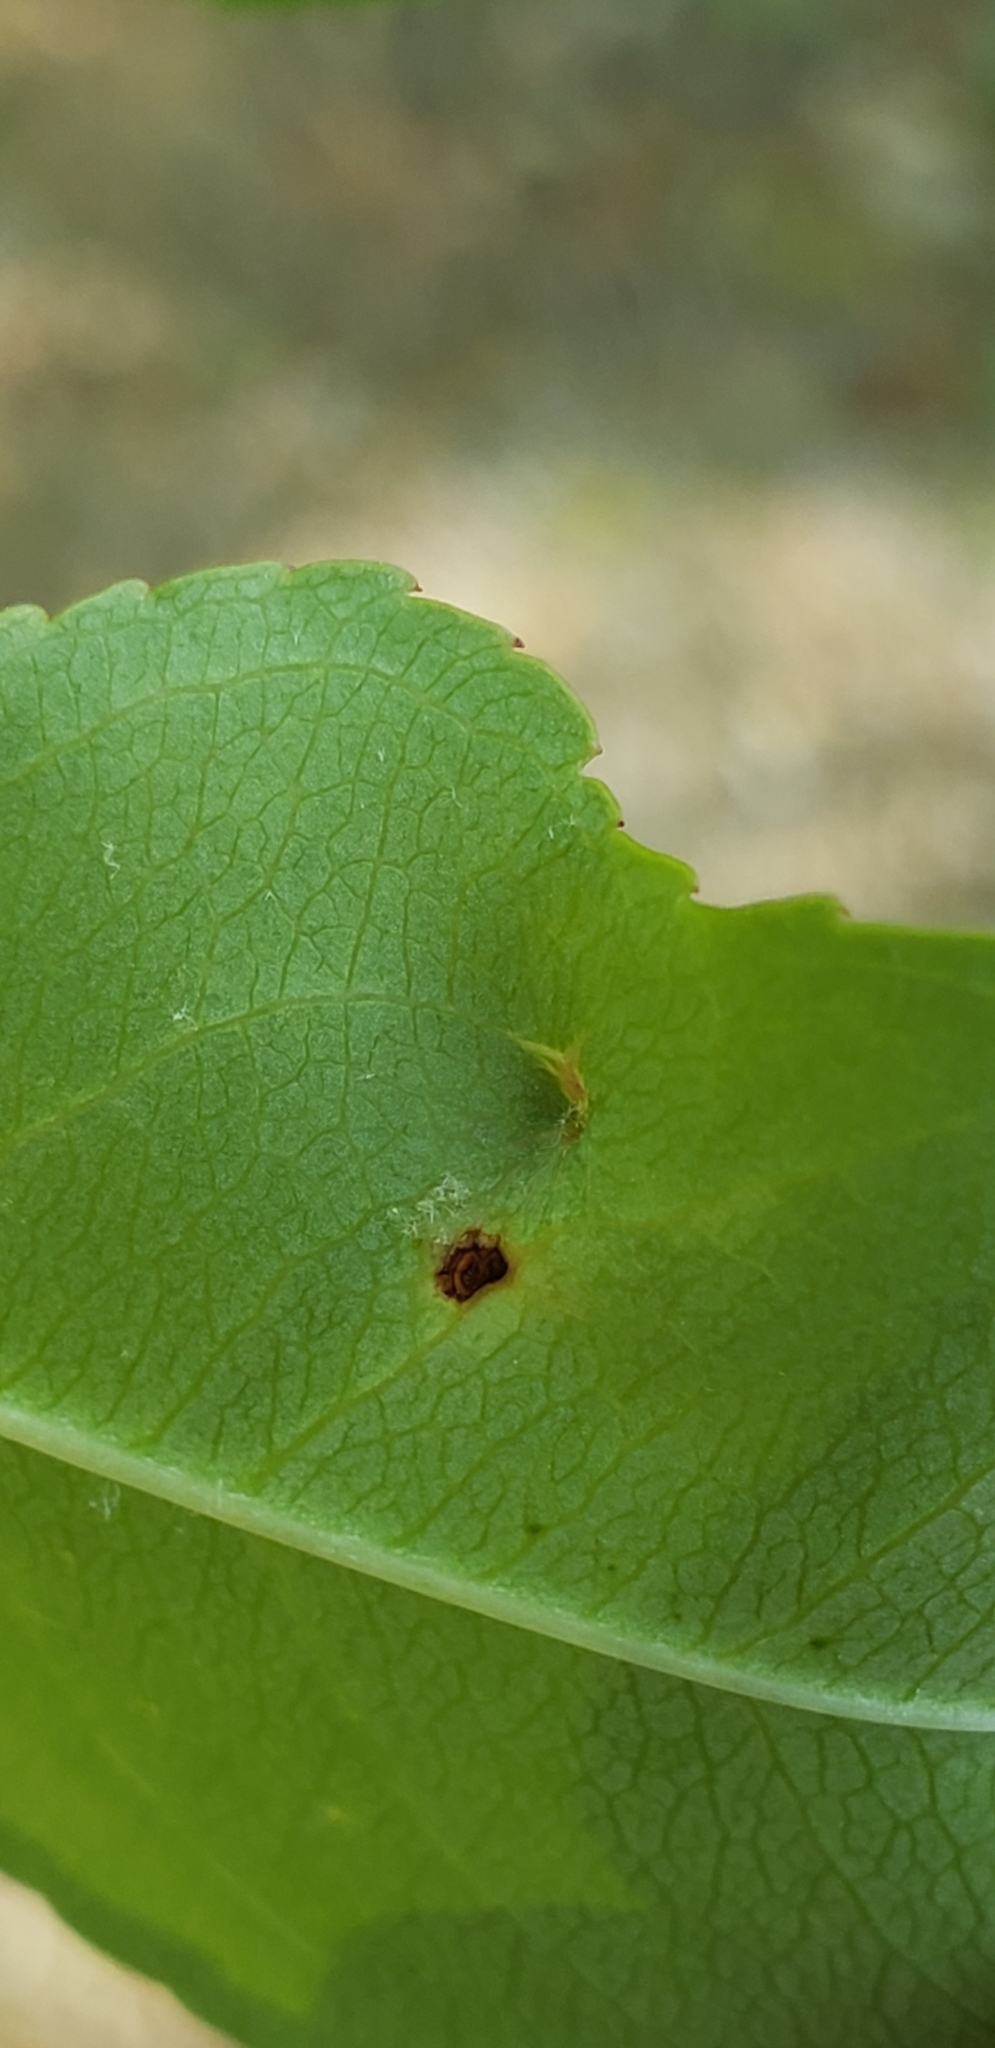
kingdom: Animalia
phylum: Arthropoda
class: Arachnida
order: Trombidiformes
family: Eriophyidae
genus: Eriophyes
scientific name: Eriophyes
